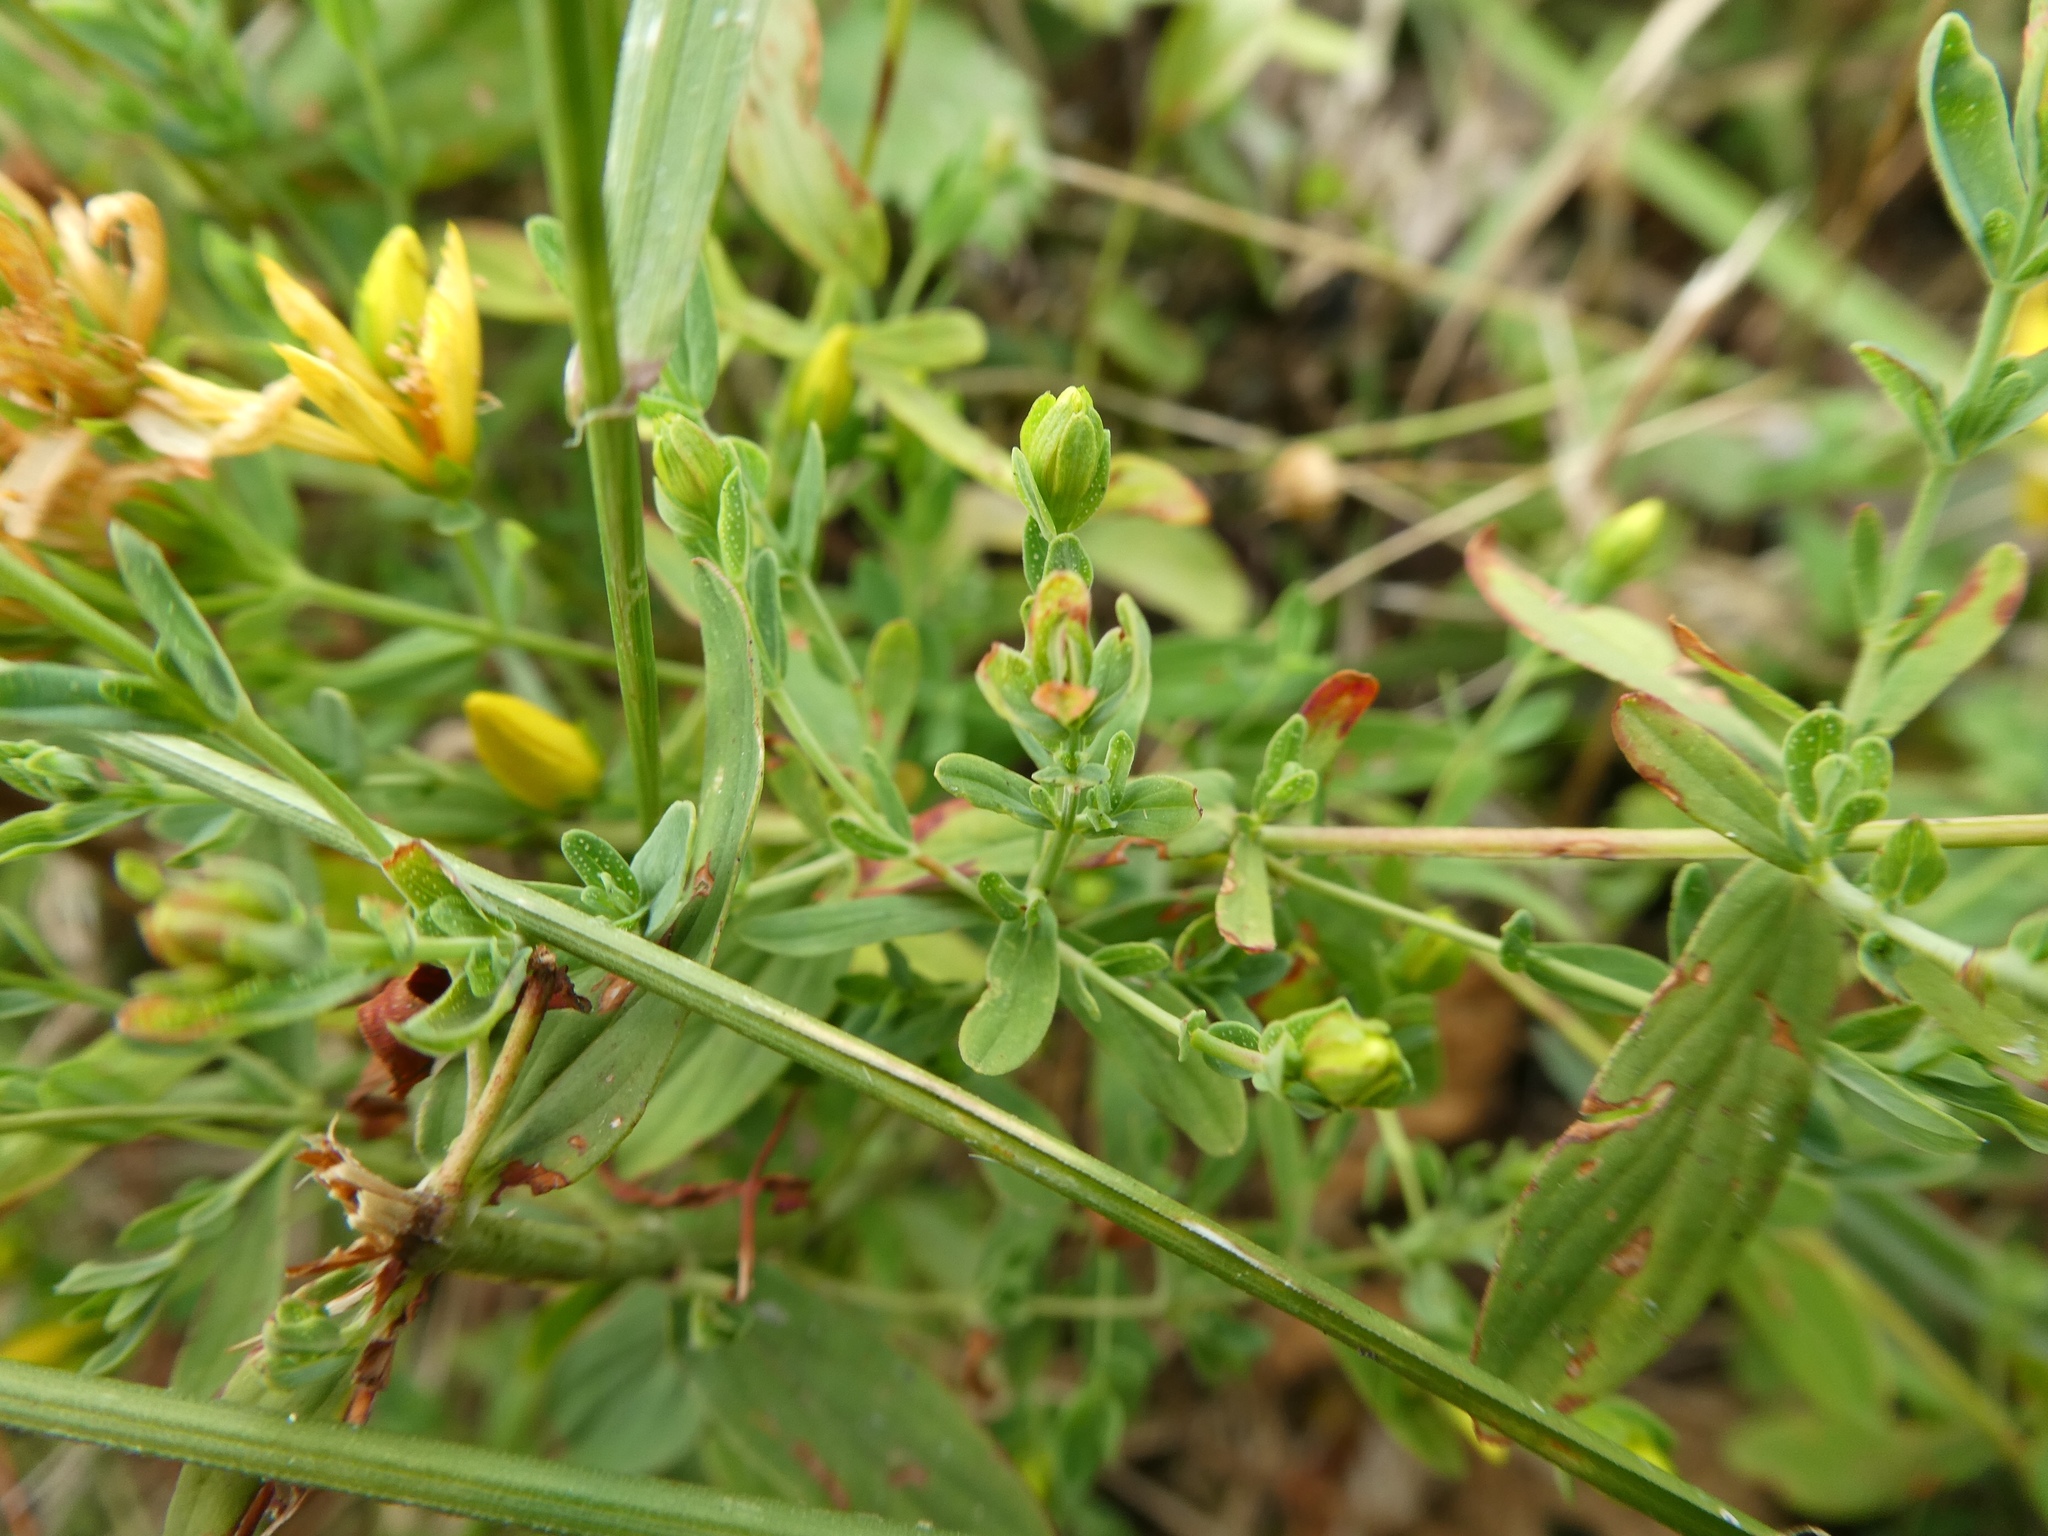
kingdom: Plantae
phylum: Tracheophyta
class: Magnoliopsida
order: Malpighiales
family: Hypericaceae
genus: Hypericum
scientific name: Hypericum perforatum
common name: Common st. johnswort
